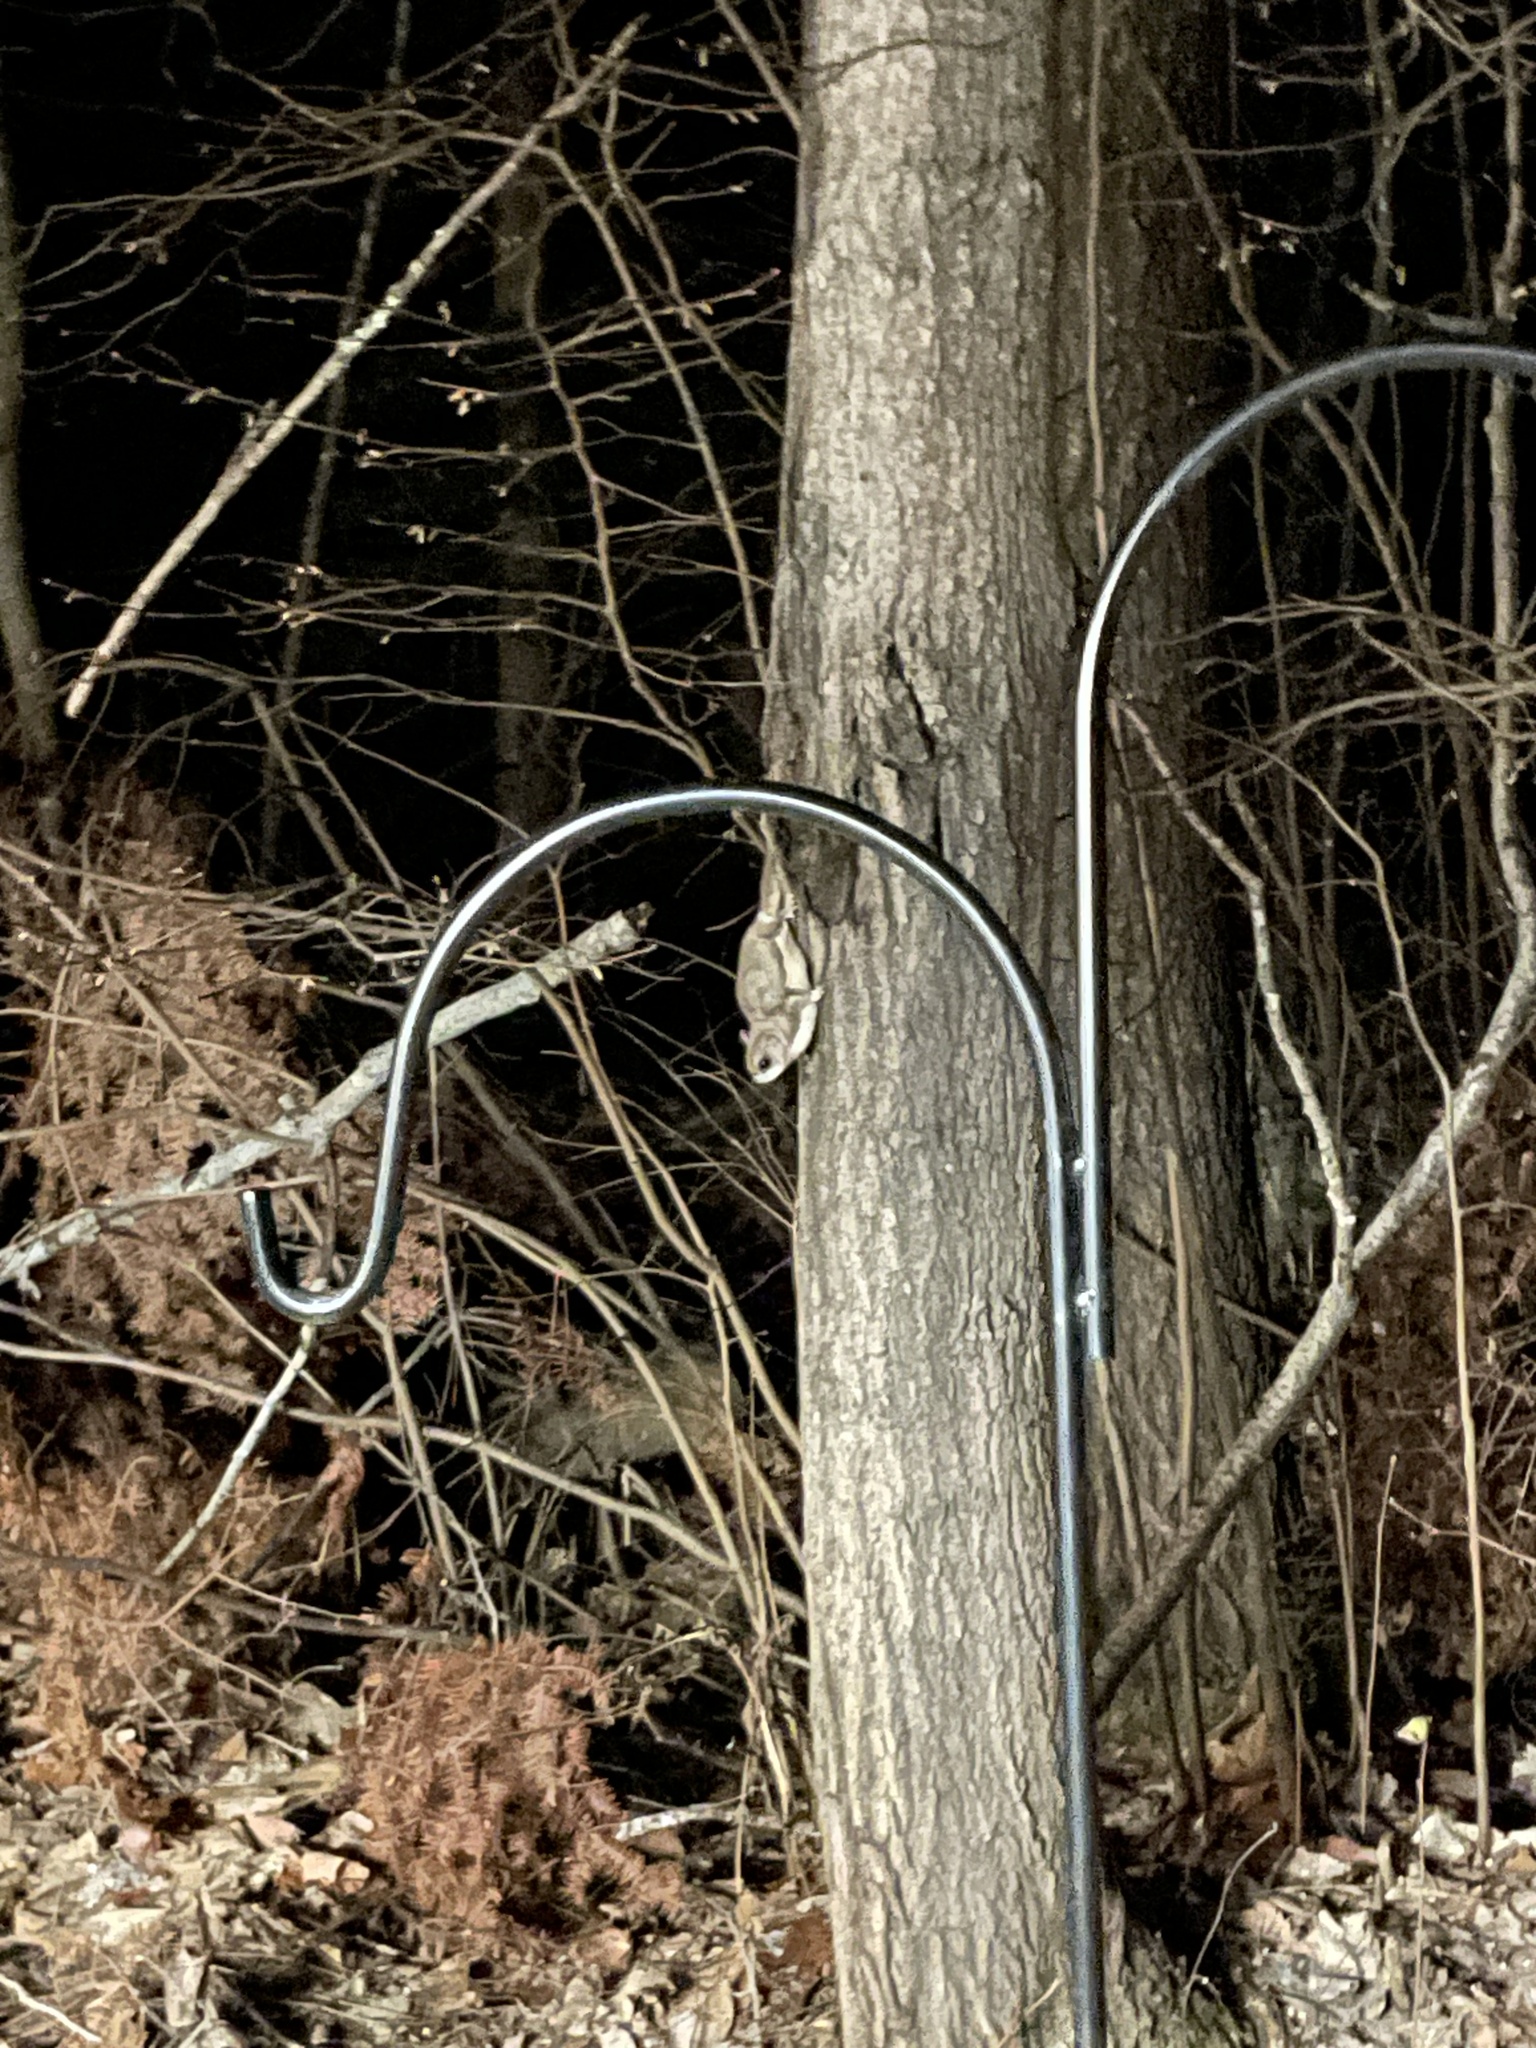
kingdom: Animalia
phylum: Chordata
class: Mammalia
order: Rodentia
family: Sciuridae
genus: Glaucomys
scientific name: Glaucomys sabrinus
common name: Northern flying squirrel
